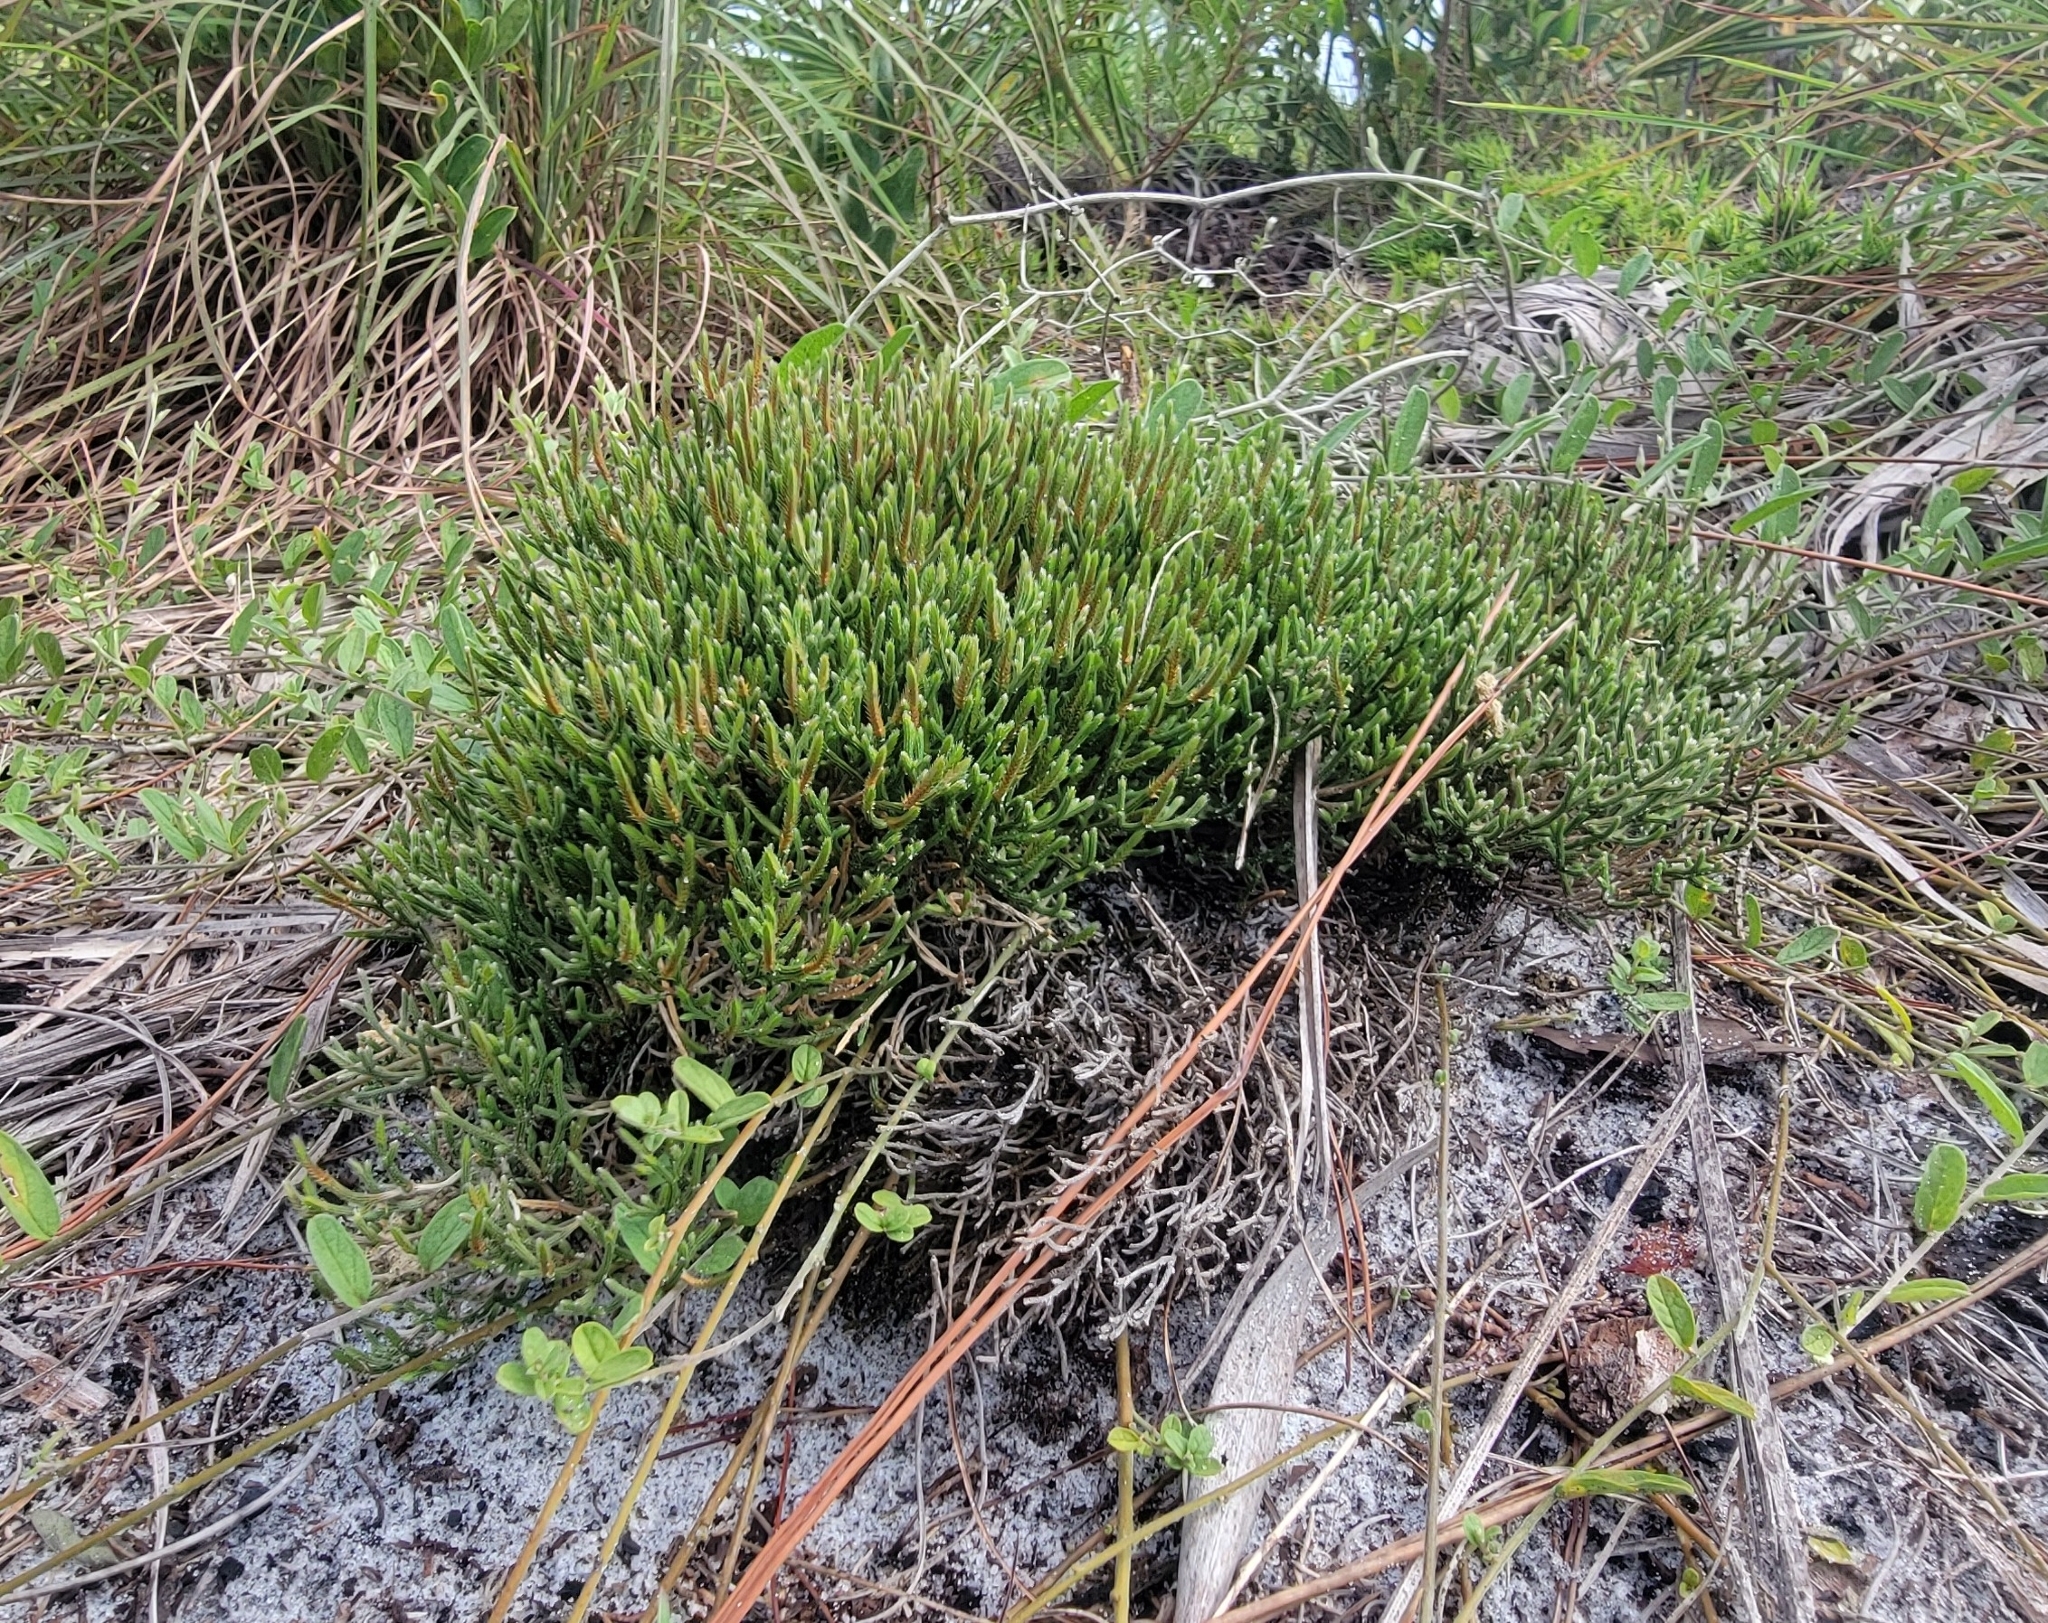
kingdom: Plantae
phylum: Tracheophyta
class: Lycopodiopsida
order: Selaginellales
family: Selaginellaceae
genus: Selaginella
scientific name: Selaginella arenicola
